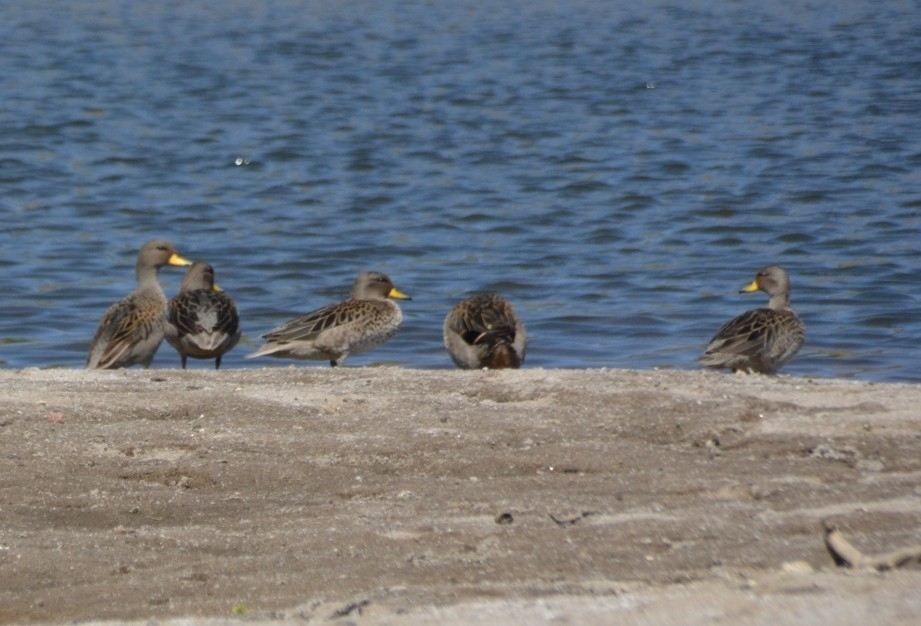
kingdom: Animalia
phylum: Chordata
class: Aves
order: Anseriformes
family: Anatidae
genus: Anas
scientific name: Anas flavirostris
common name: Yellow-billed teal
